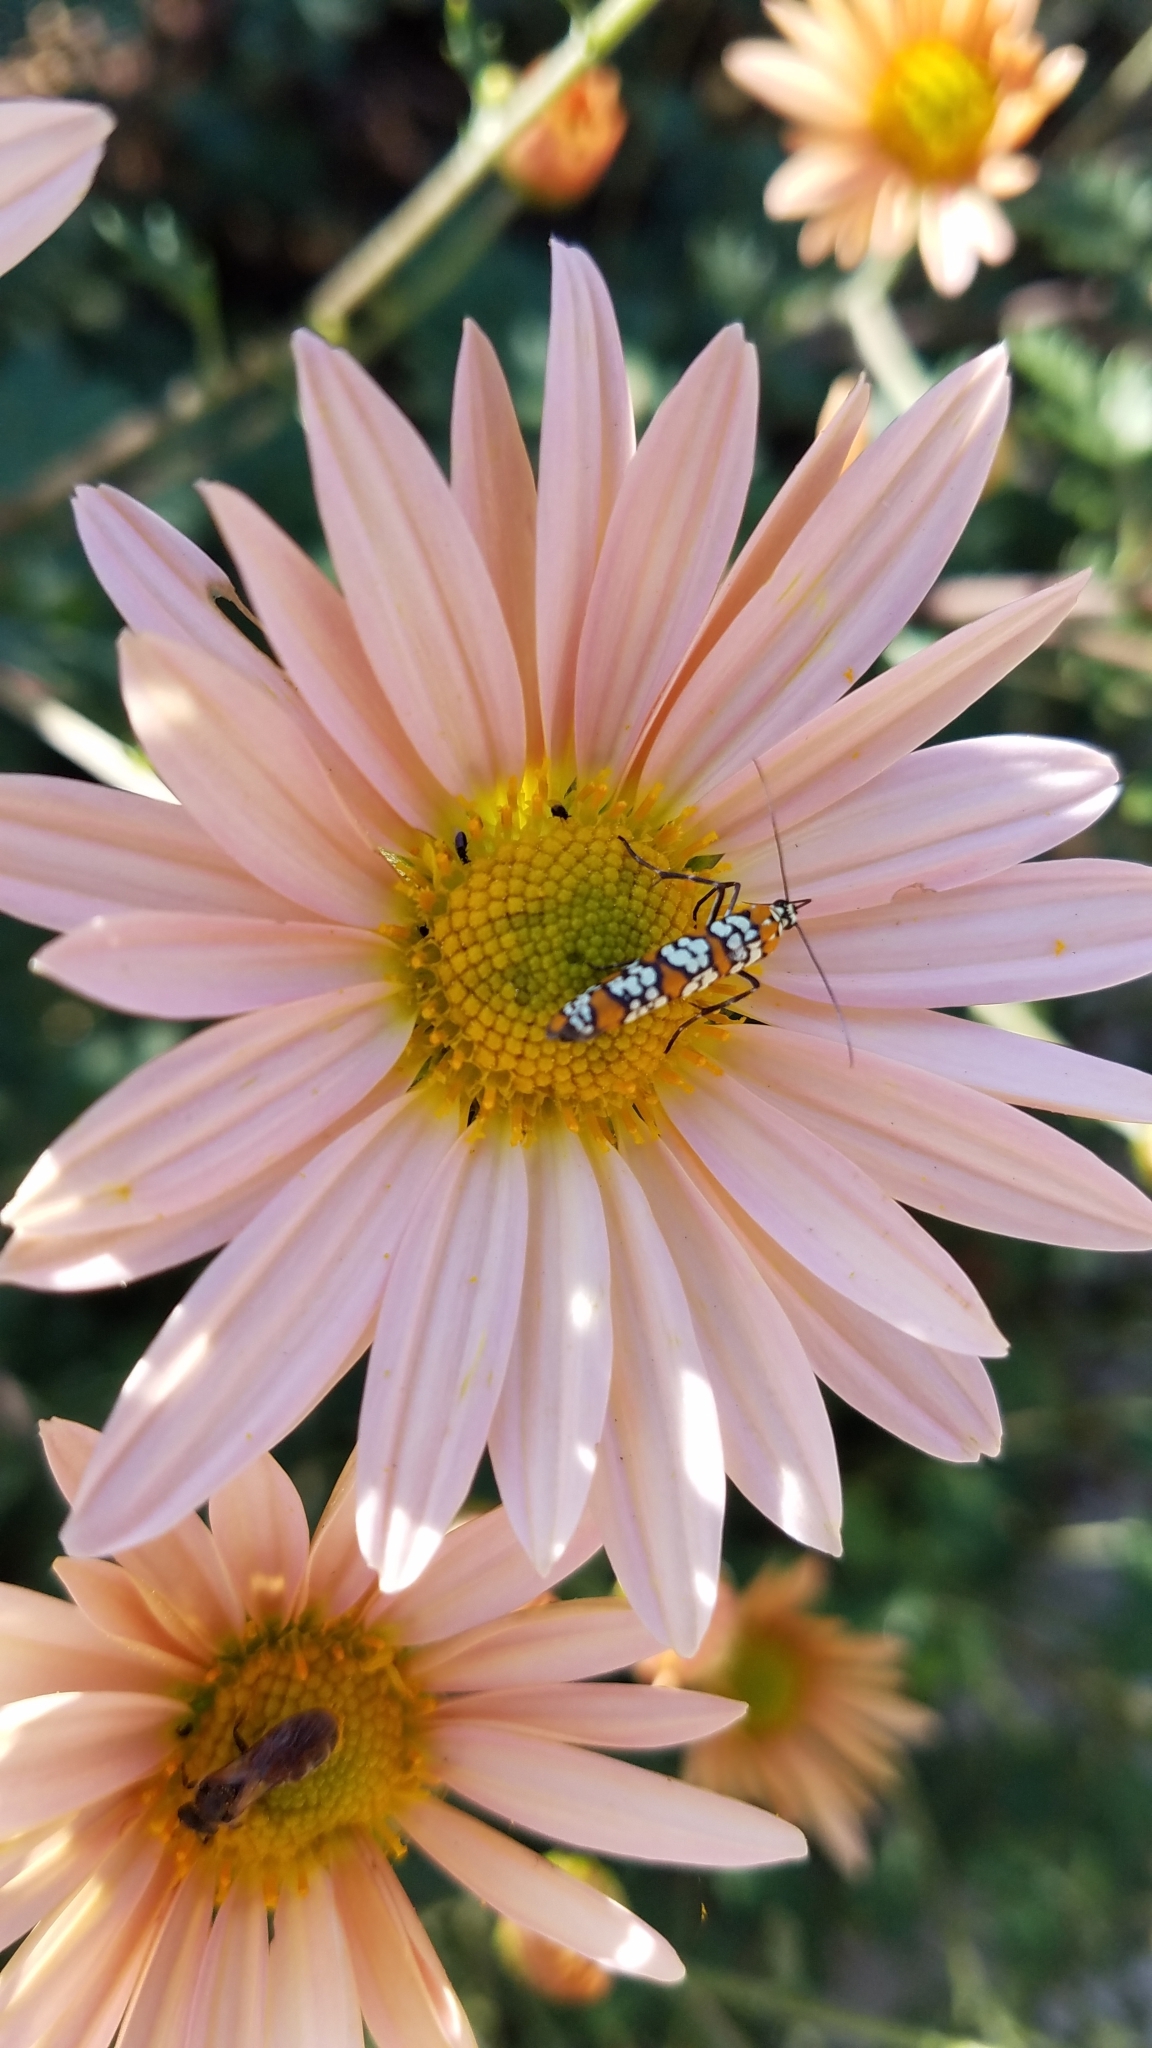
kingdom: Animalia
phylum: Arthropoda
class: Insecta
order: Lepidoptera
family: Attevidae
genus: Atteva
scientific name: Atteva punctella
